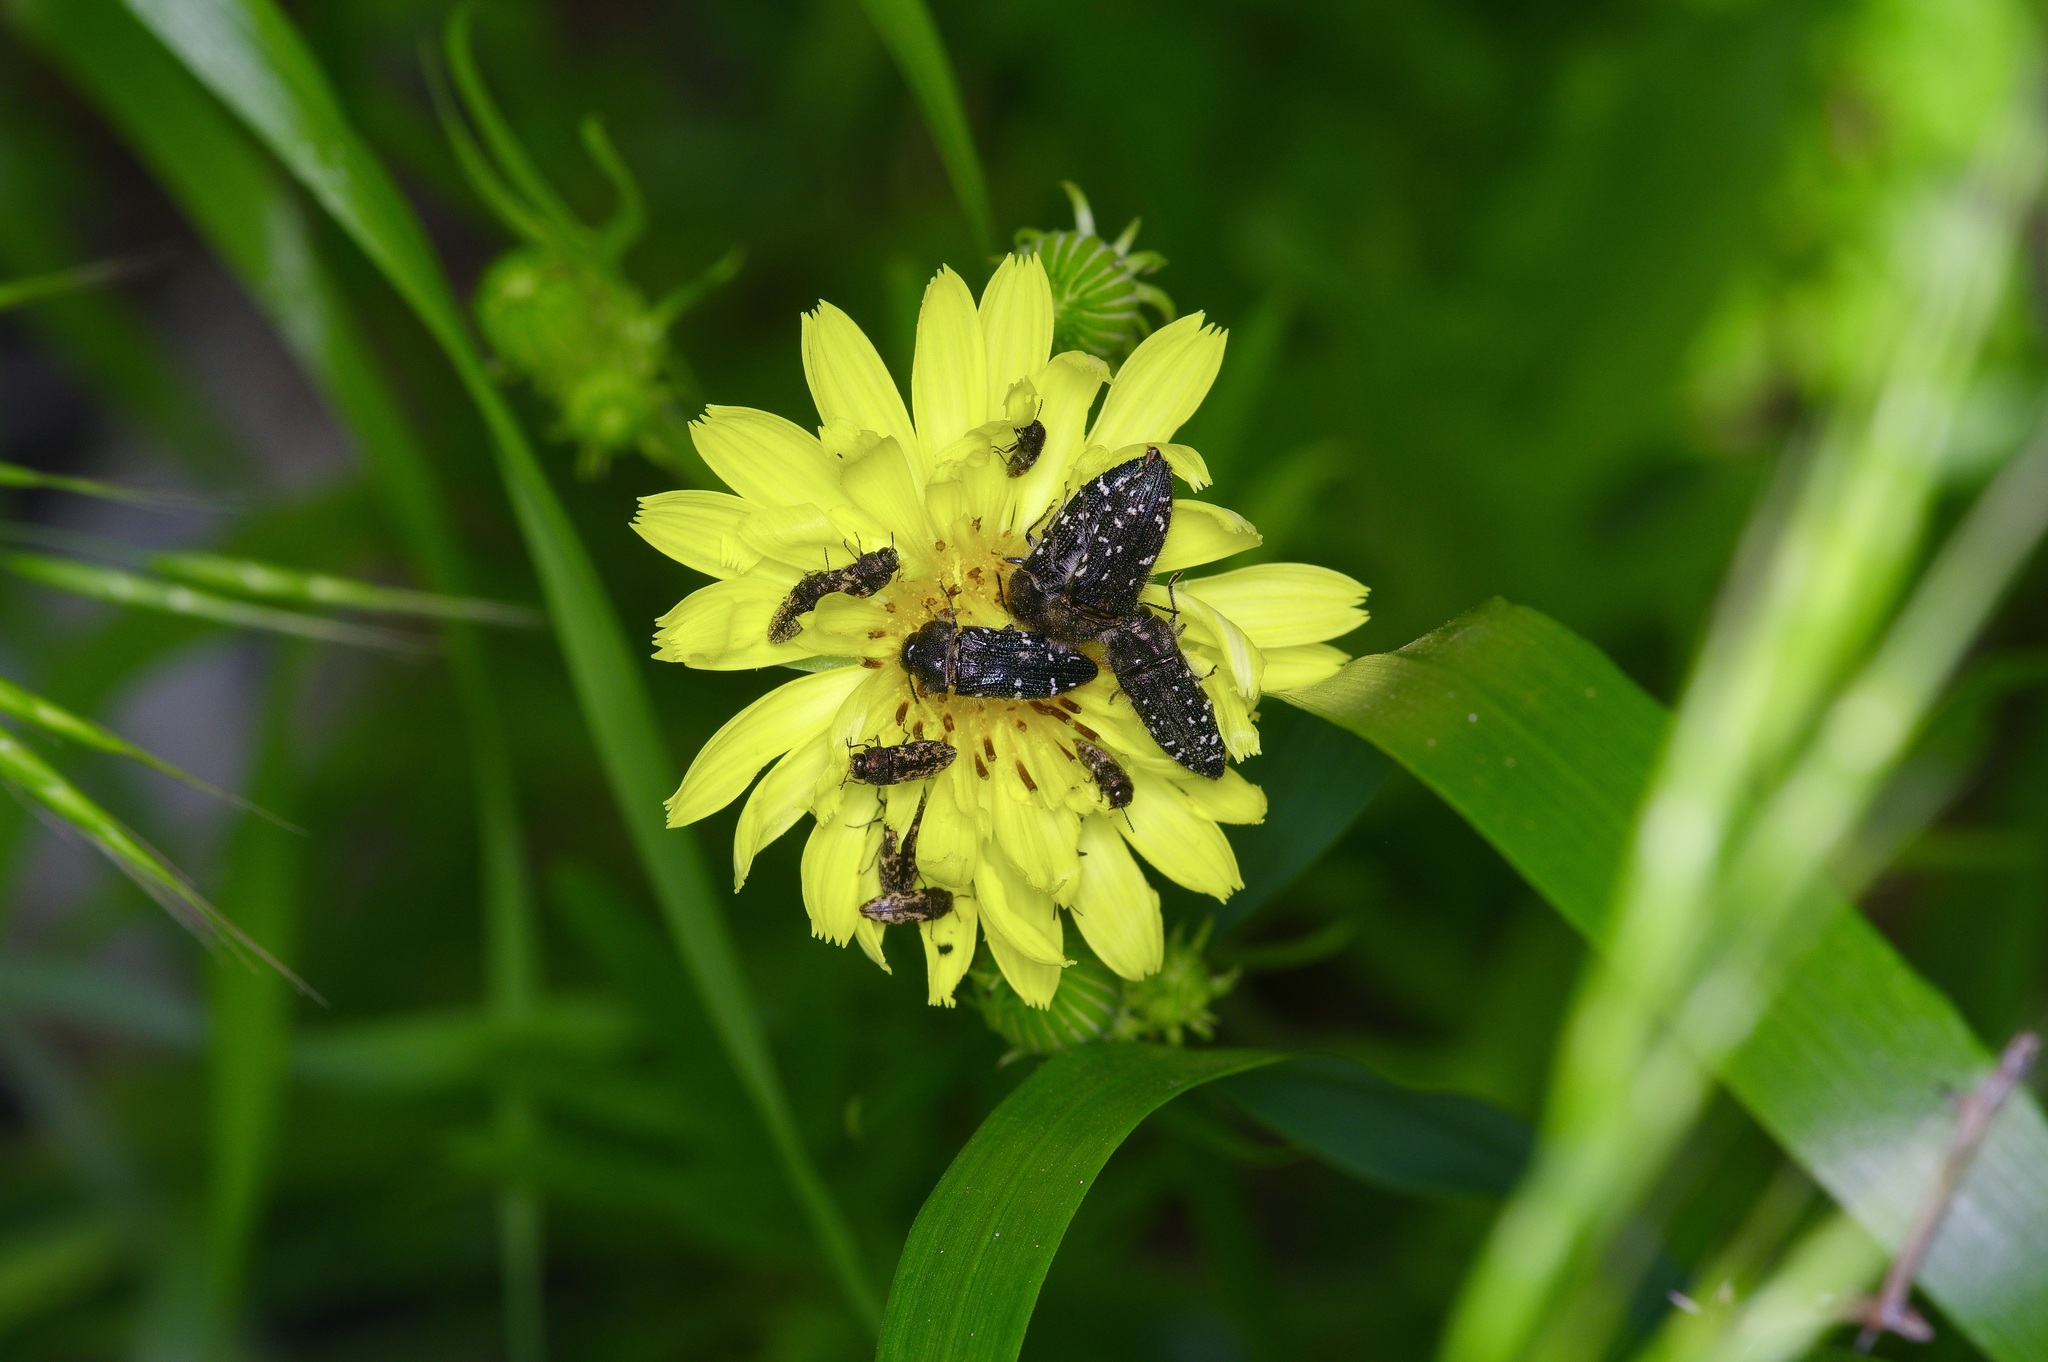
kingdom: Animalia
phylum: Arthropoda
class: Insecta
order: Coleoptera
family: Buprestidae
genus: Acmaeodera
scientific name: Acmaeodera ornatoides
